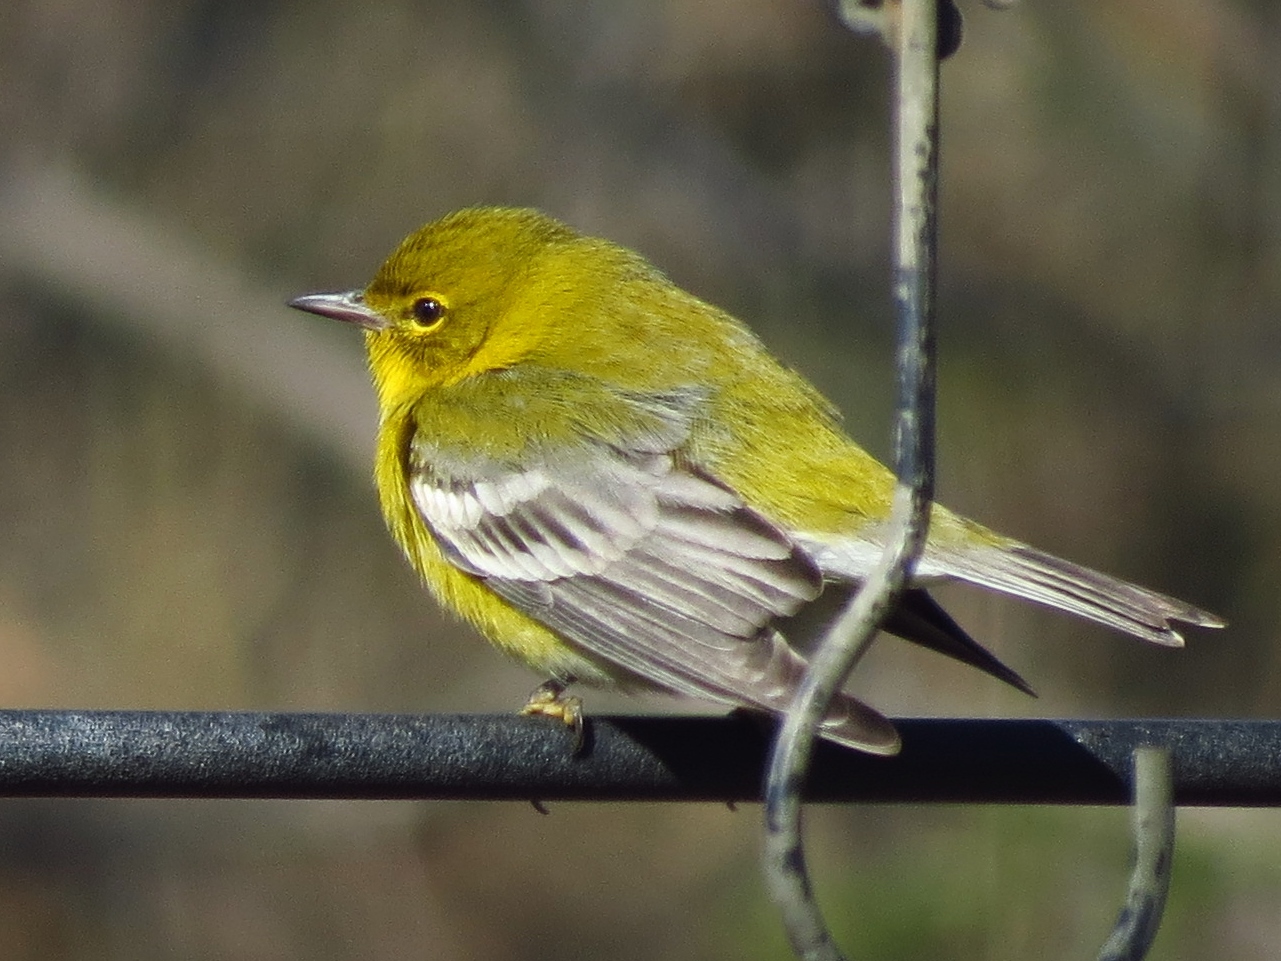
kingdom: Animalia
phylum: Chordata
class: Aves
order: Passeriformes
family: Parulidae
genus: Setophaga
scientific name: Setophaga pinus
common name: Pine warbler
